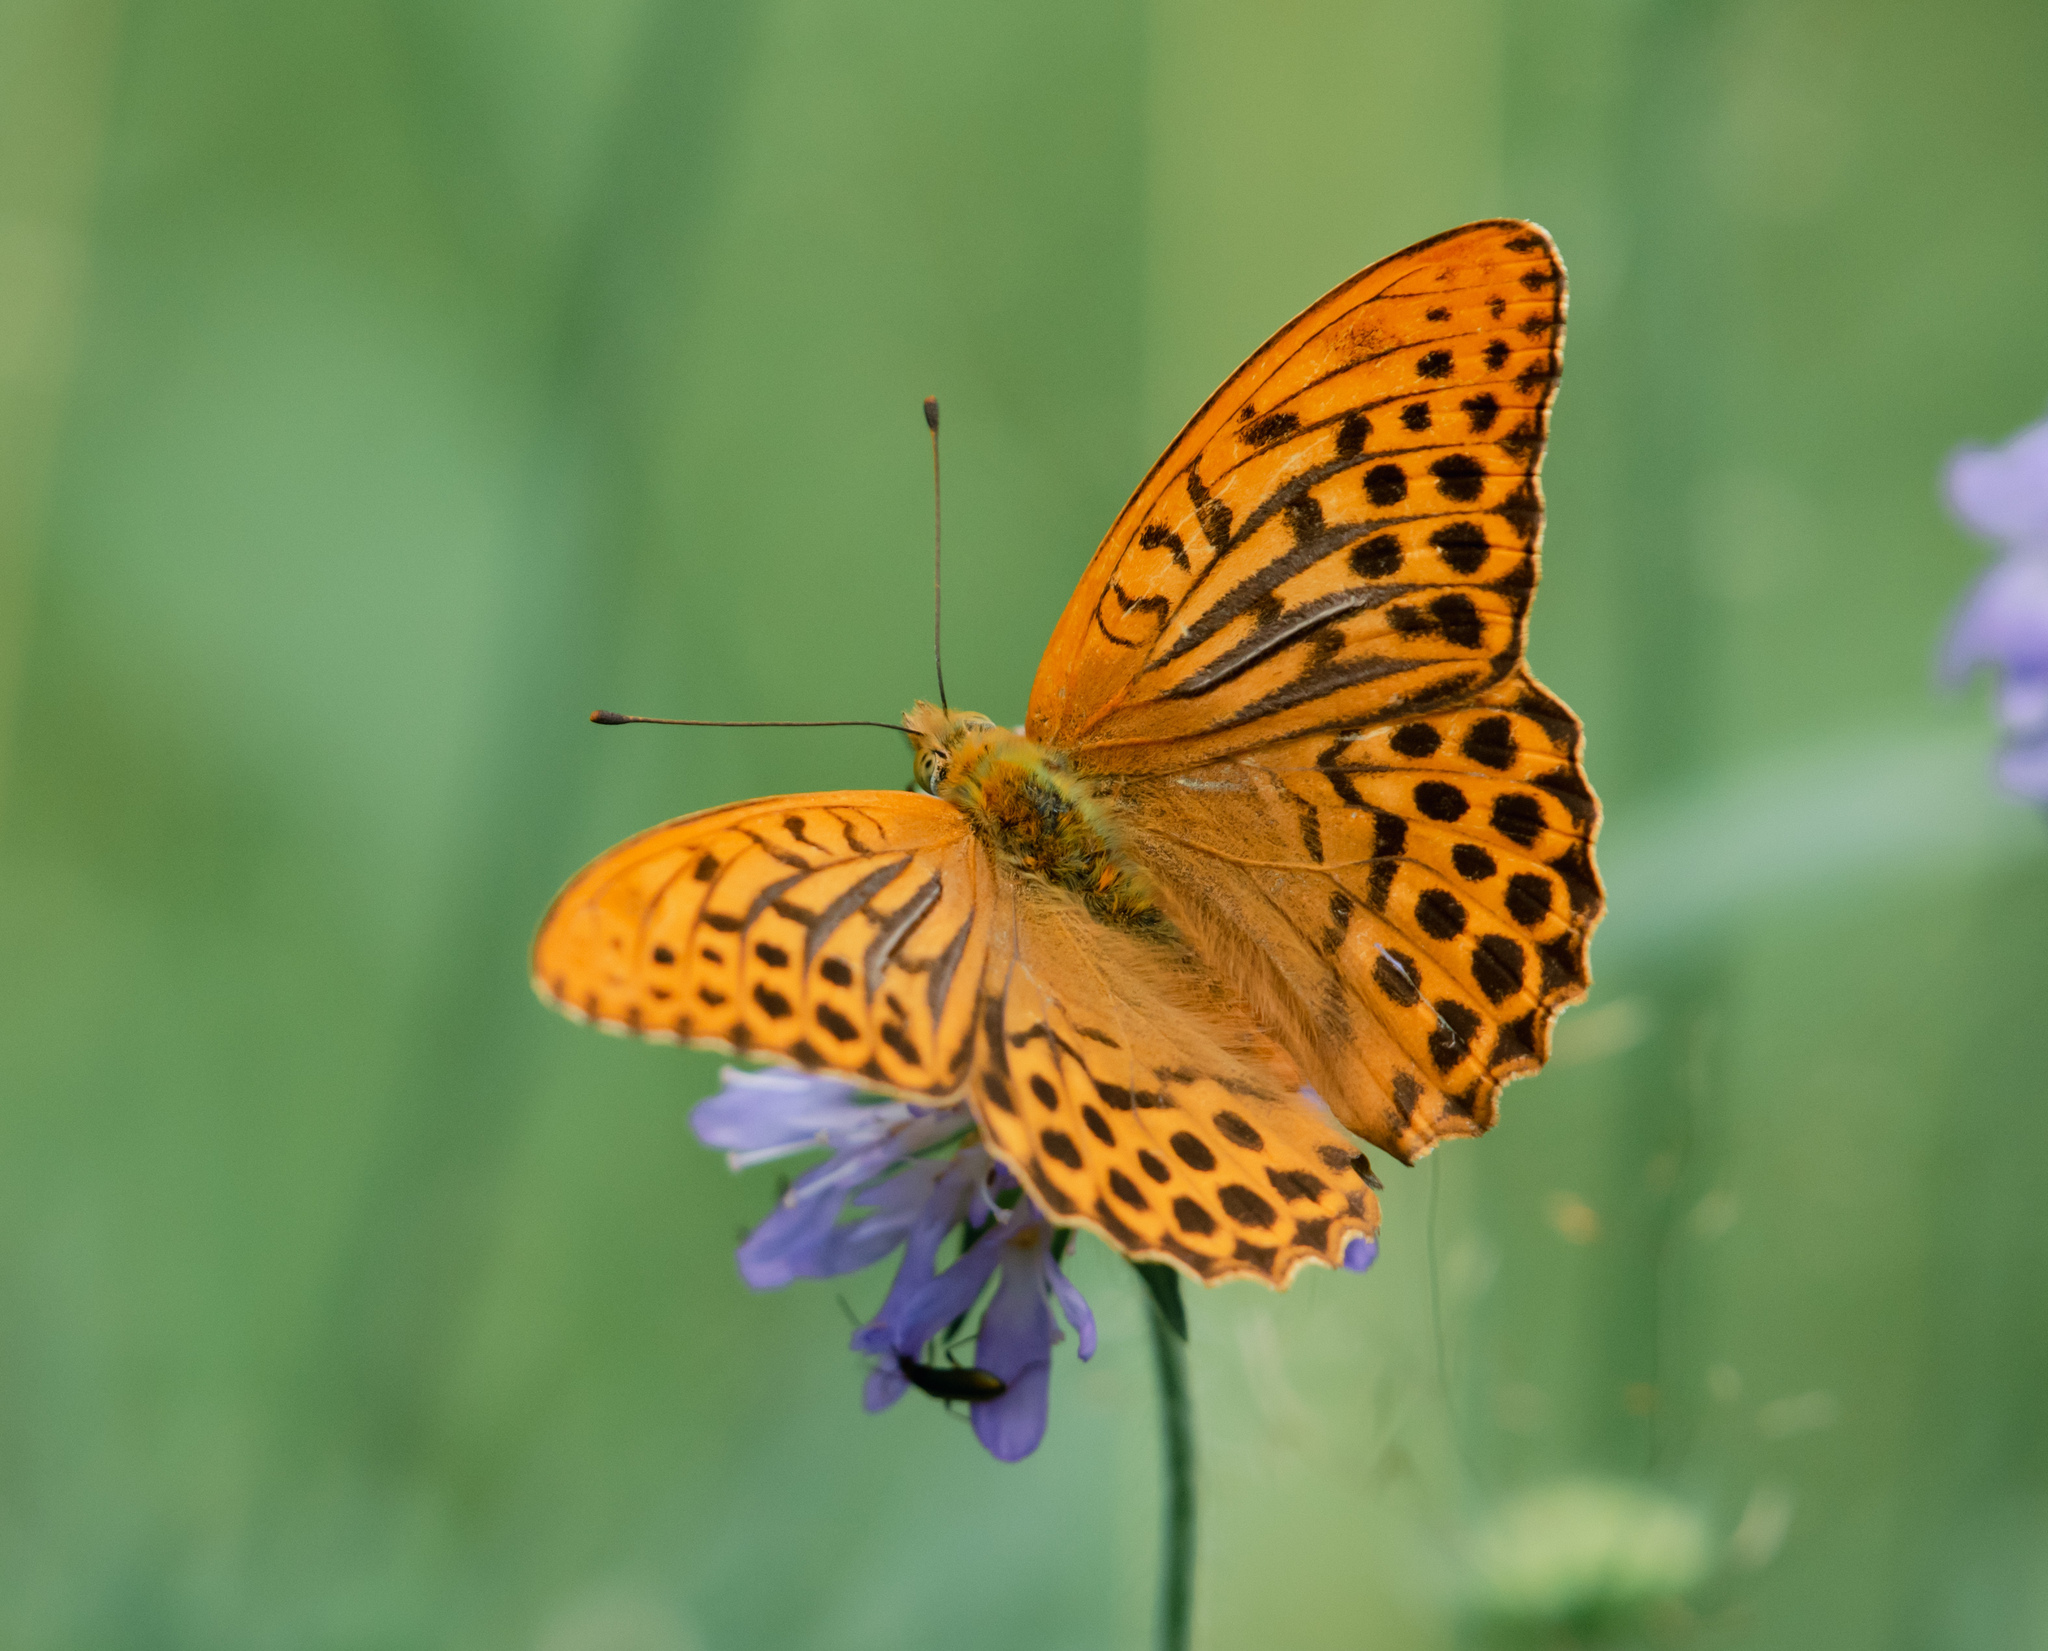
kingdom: Animalia
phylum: Arthropoda
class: Insecta
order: Lepidoptera
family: Nymphalidae
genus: Argynnis
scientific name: Argynnis paphia
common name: Silver-washed fritillary
